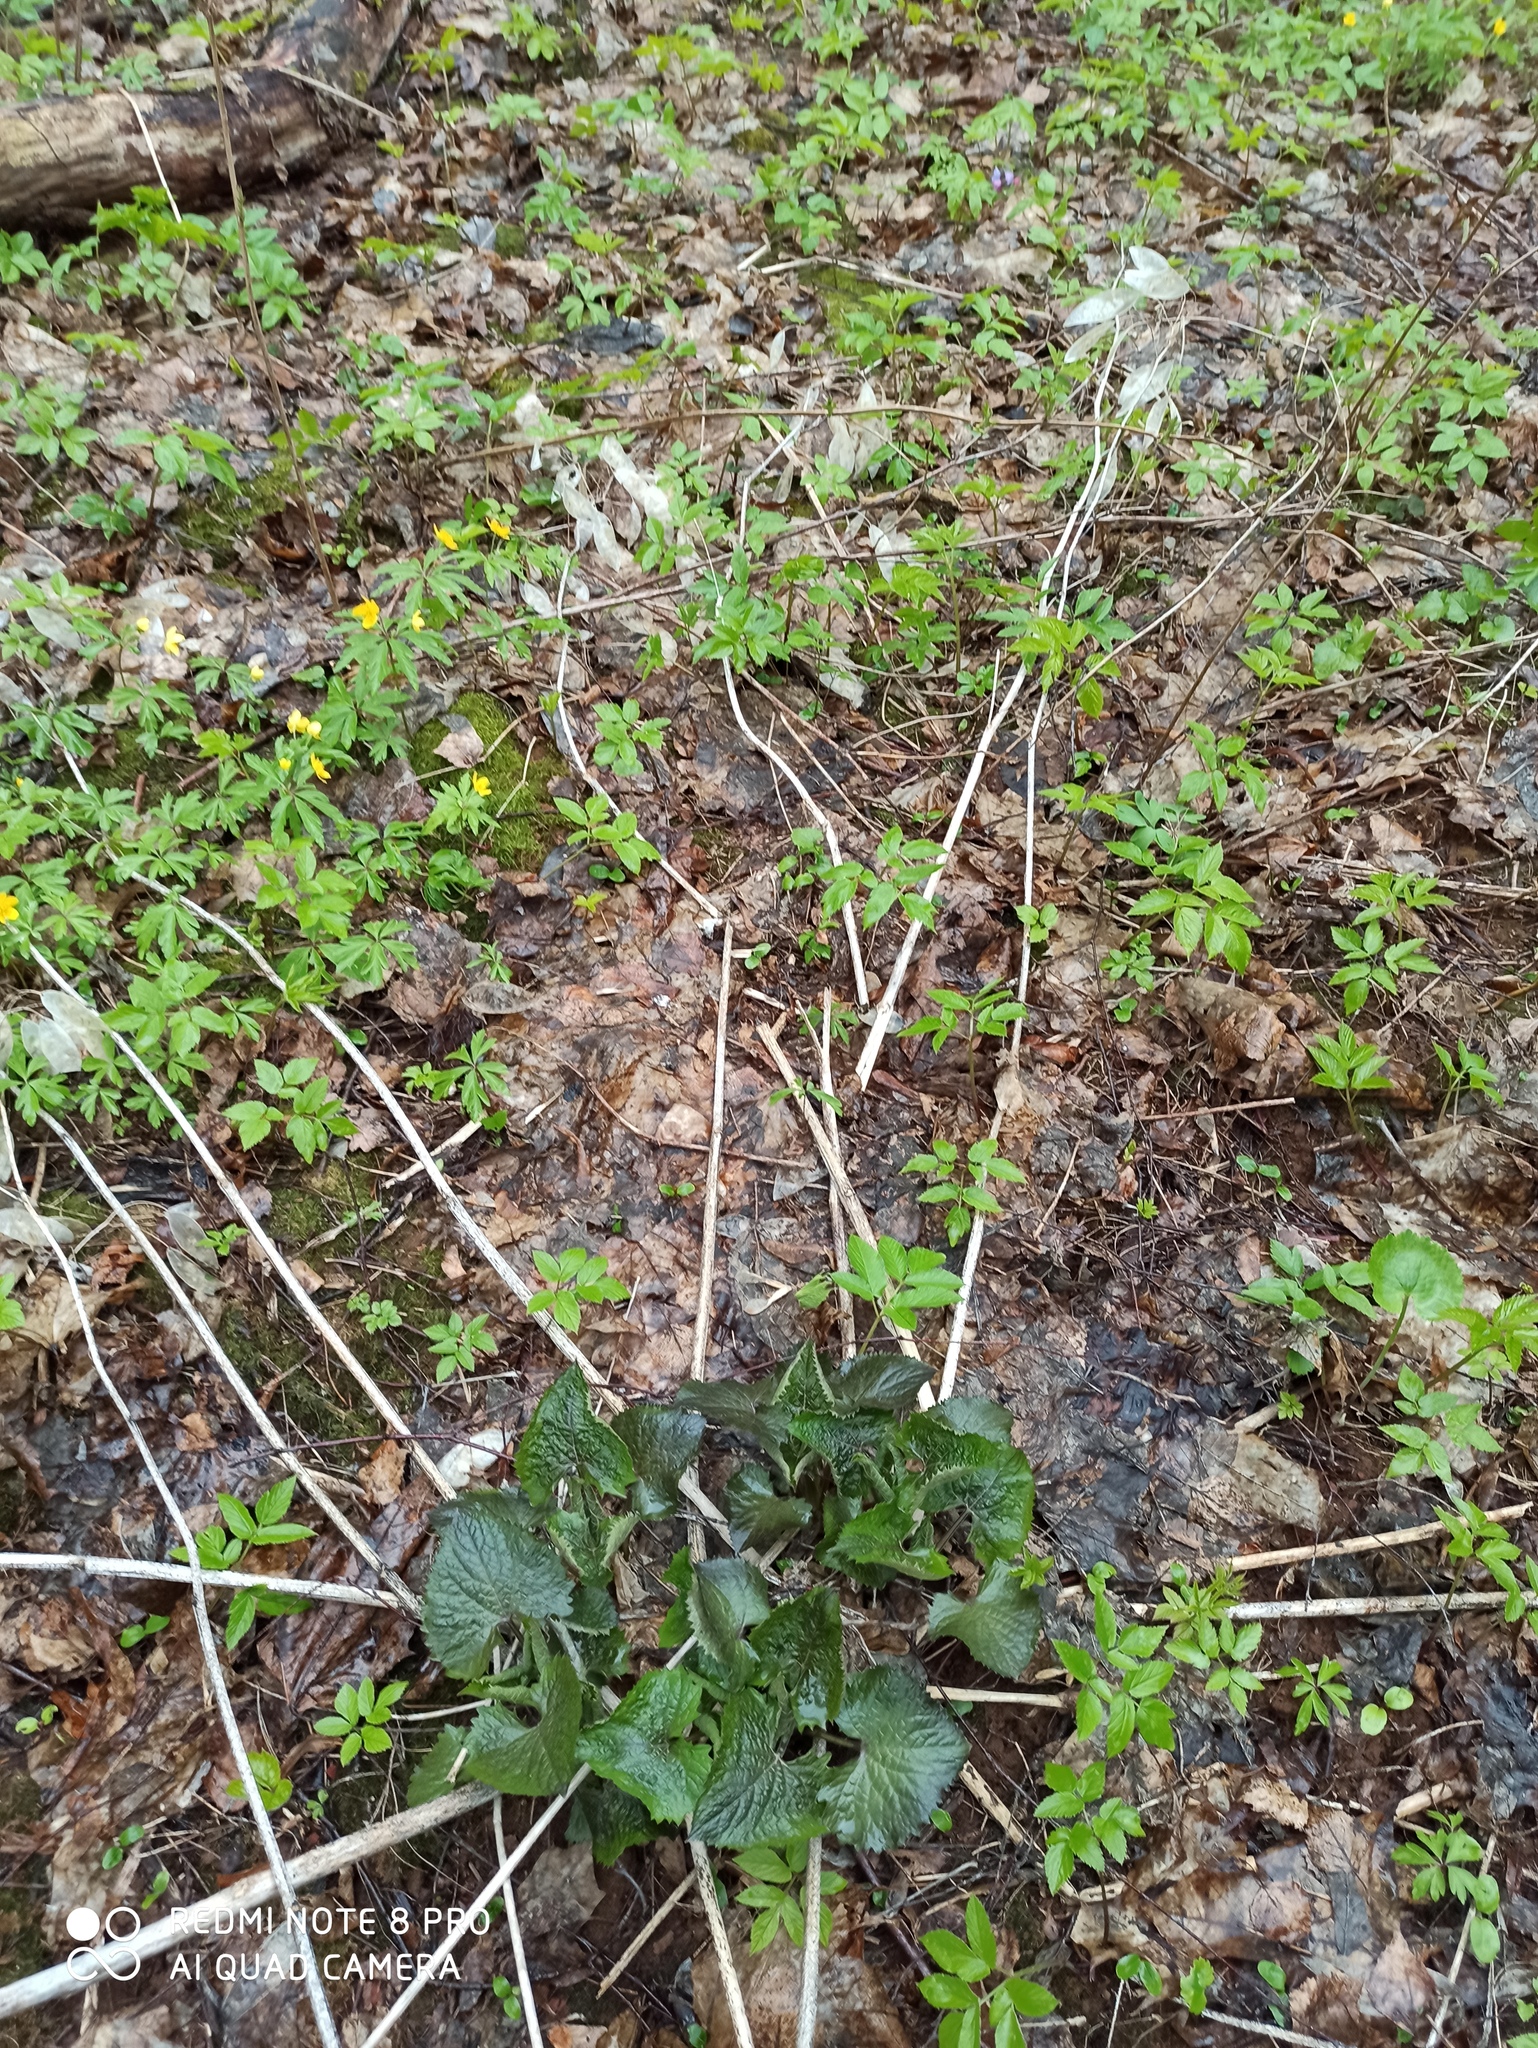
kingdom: Plantae
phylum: Tracheophyta
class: Magnoliopsida
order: Brassicales
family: Brassicaceae
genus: Lunaria
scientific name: Lunaria rediviva
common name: Perennial honesty
